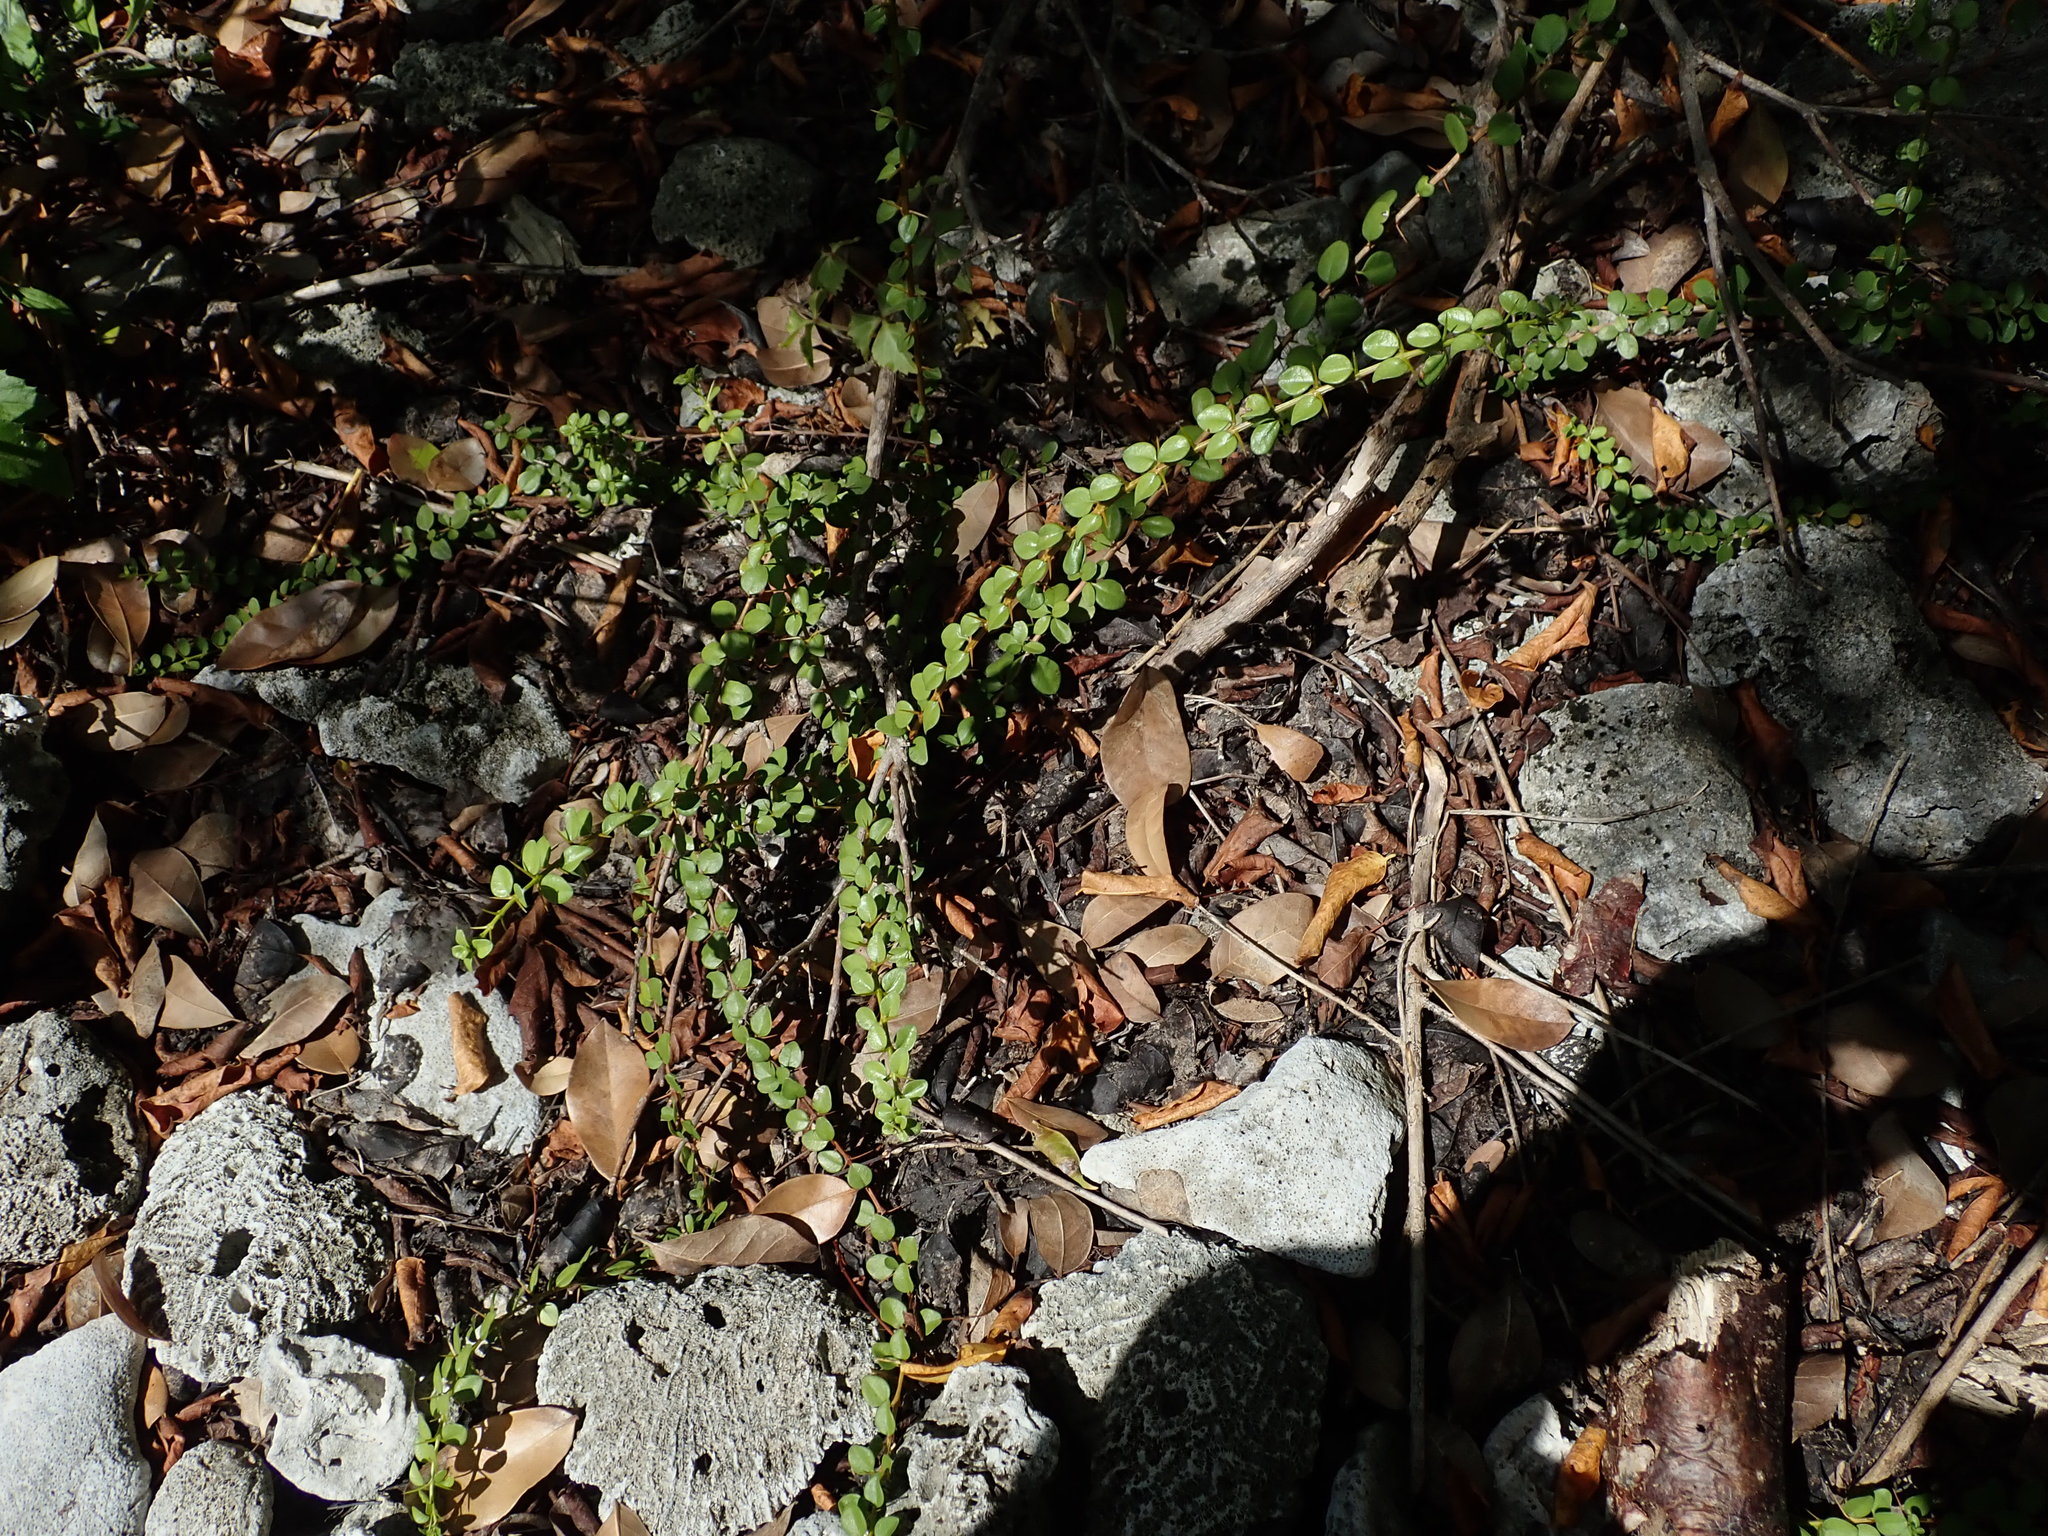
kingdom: Plantae
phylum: Tracheophyta
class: Magnoliopsida
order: Lamiales
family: Acanthaceae
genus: Oplonia
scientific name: Oplonia spinosa
